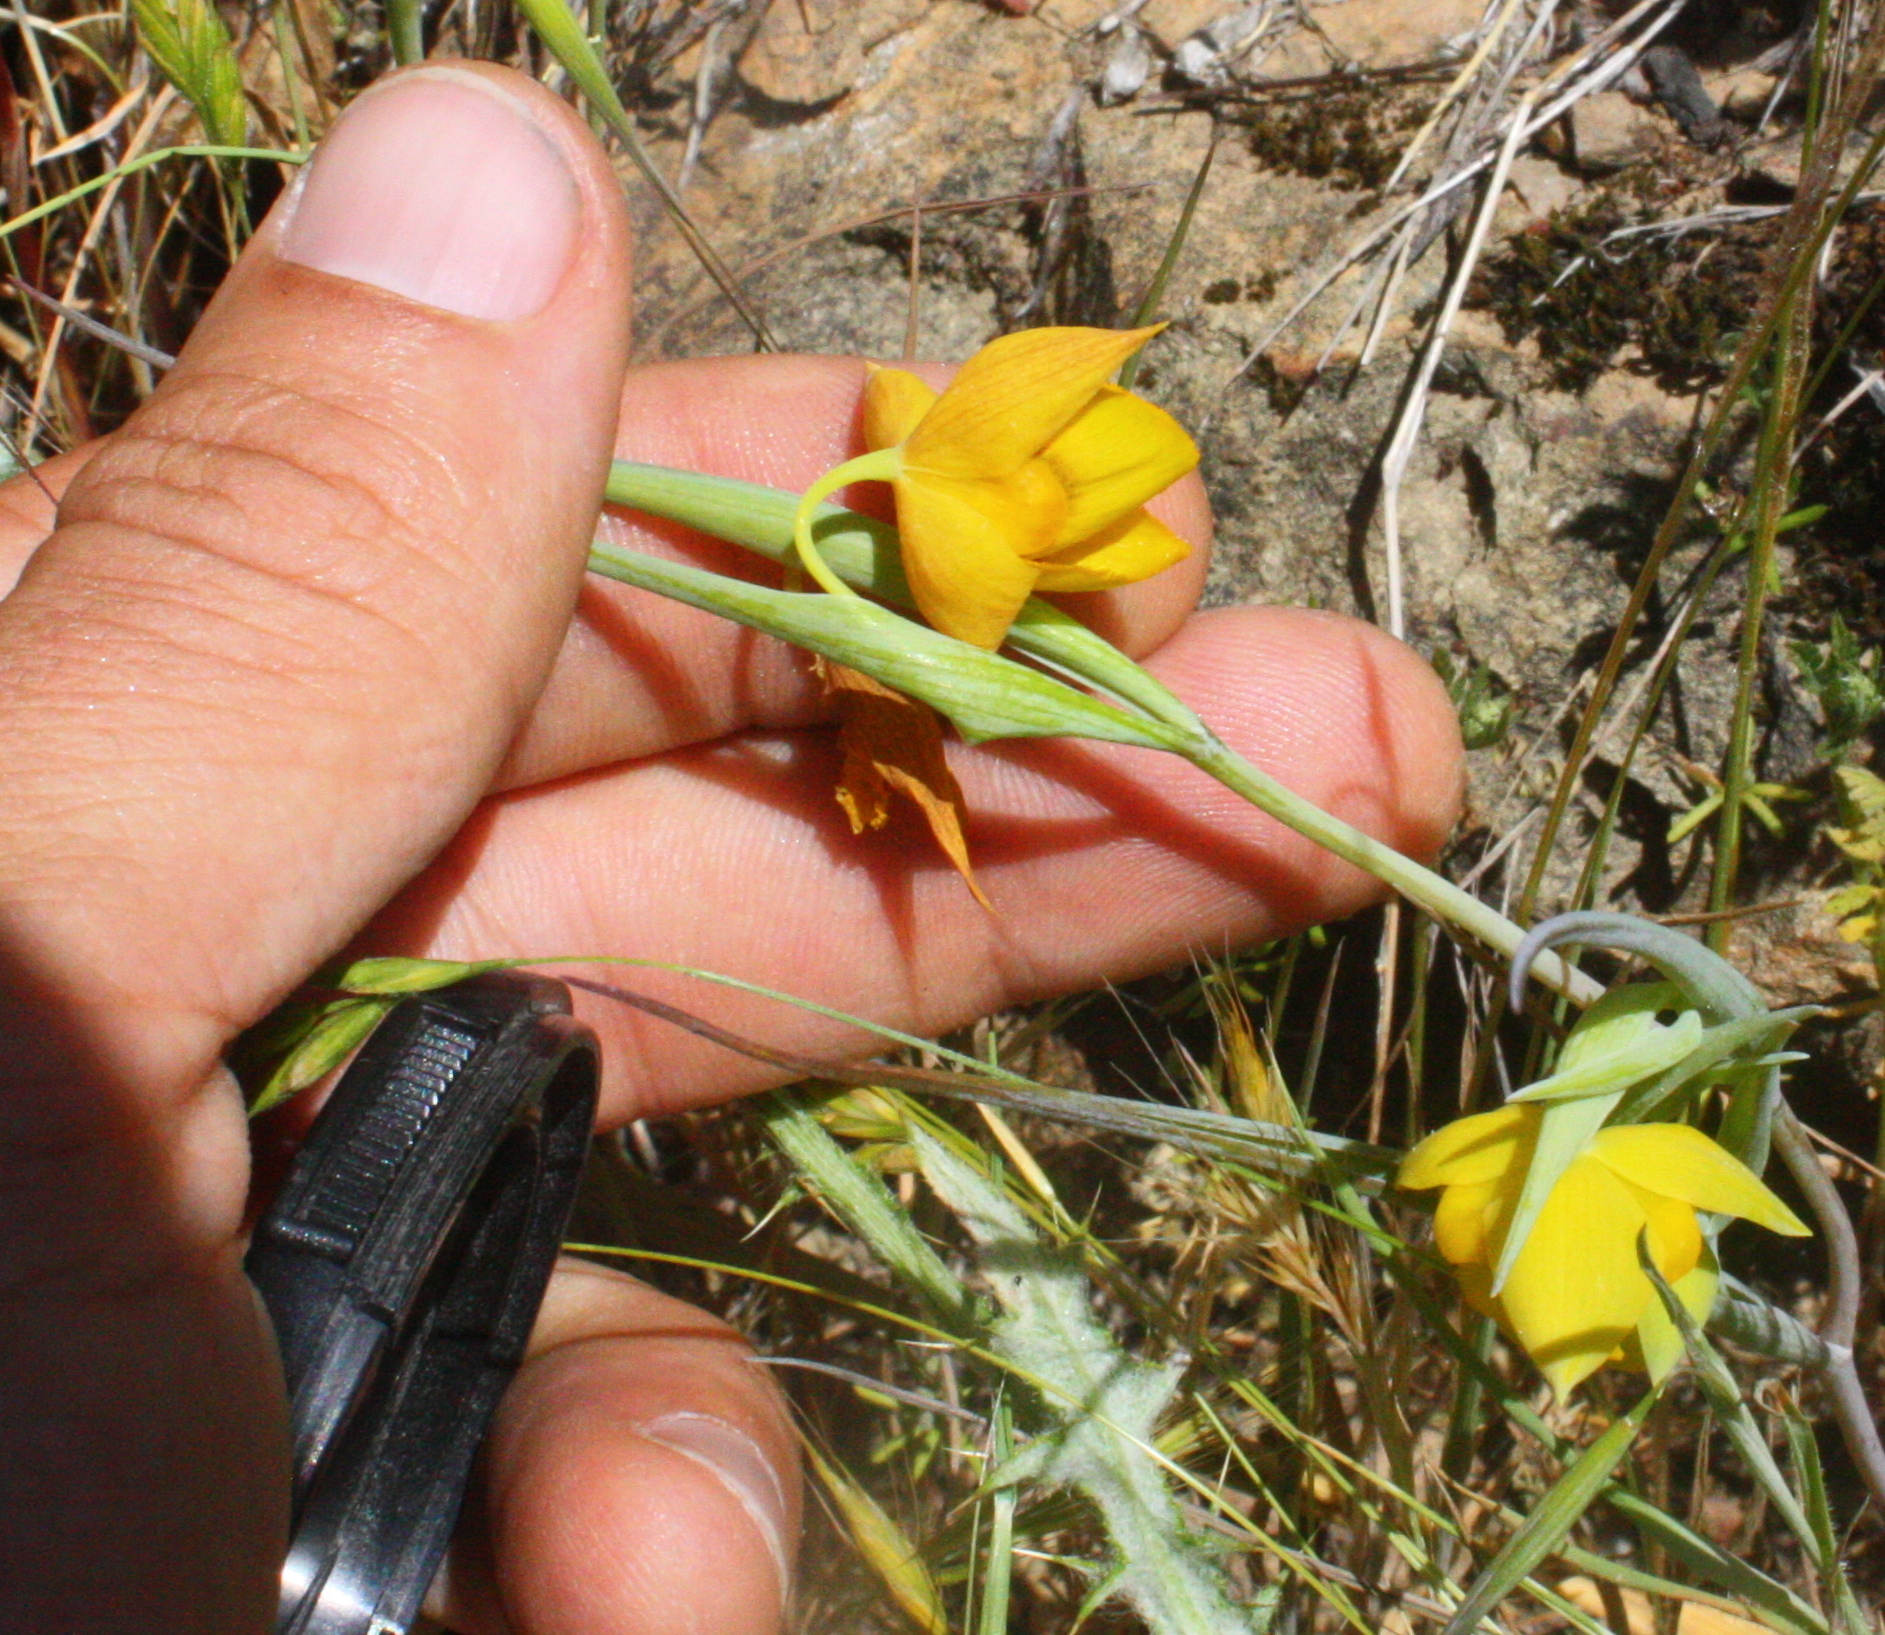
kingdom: Plantae
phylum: Tracheophyta
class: Liliopsida
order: Liliales
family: Liliaceae
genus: Calochortus
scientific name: Calochortus amabilis
